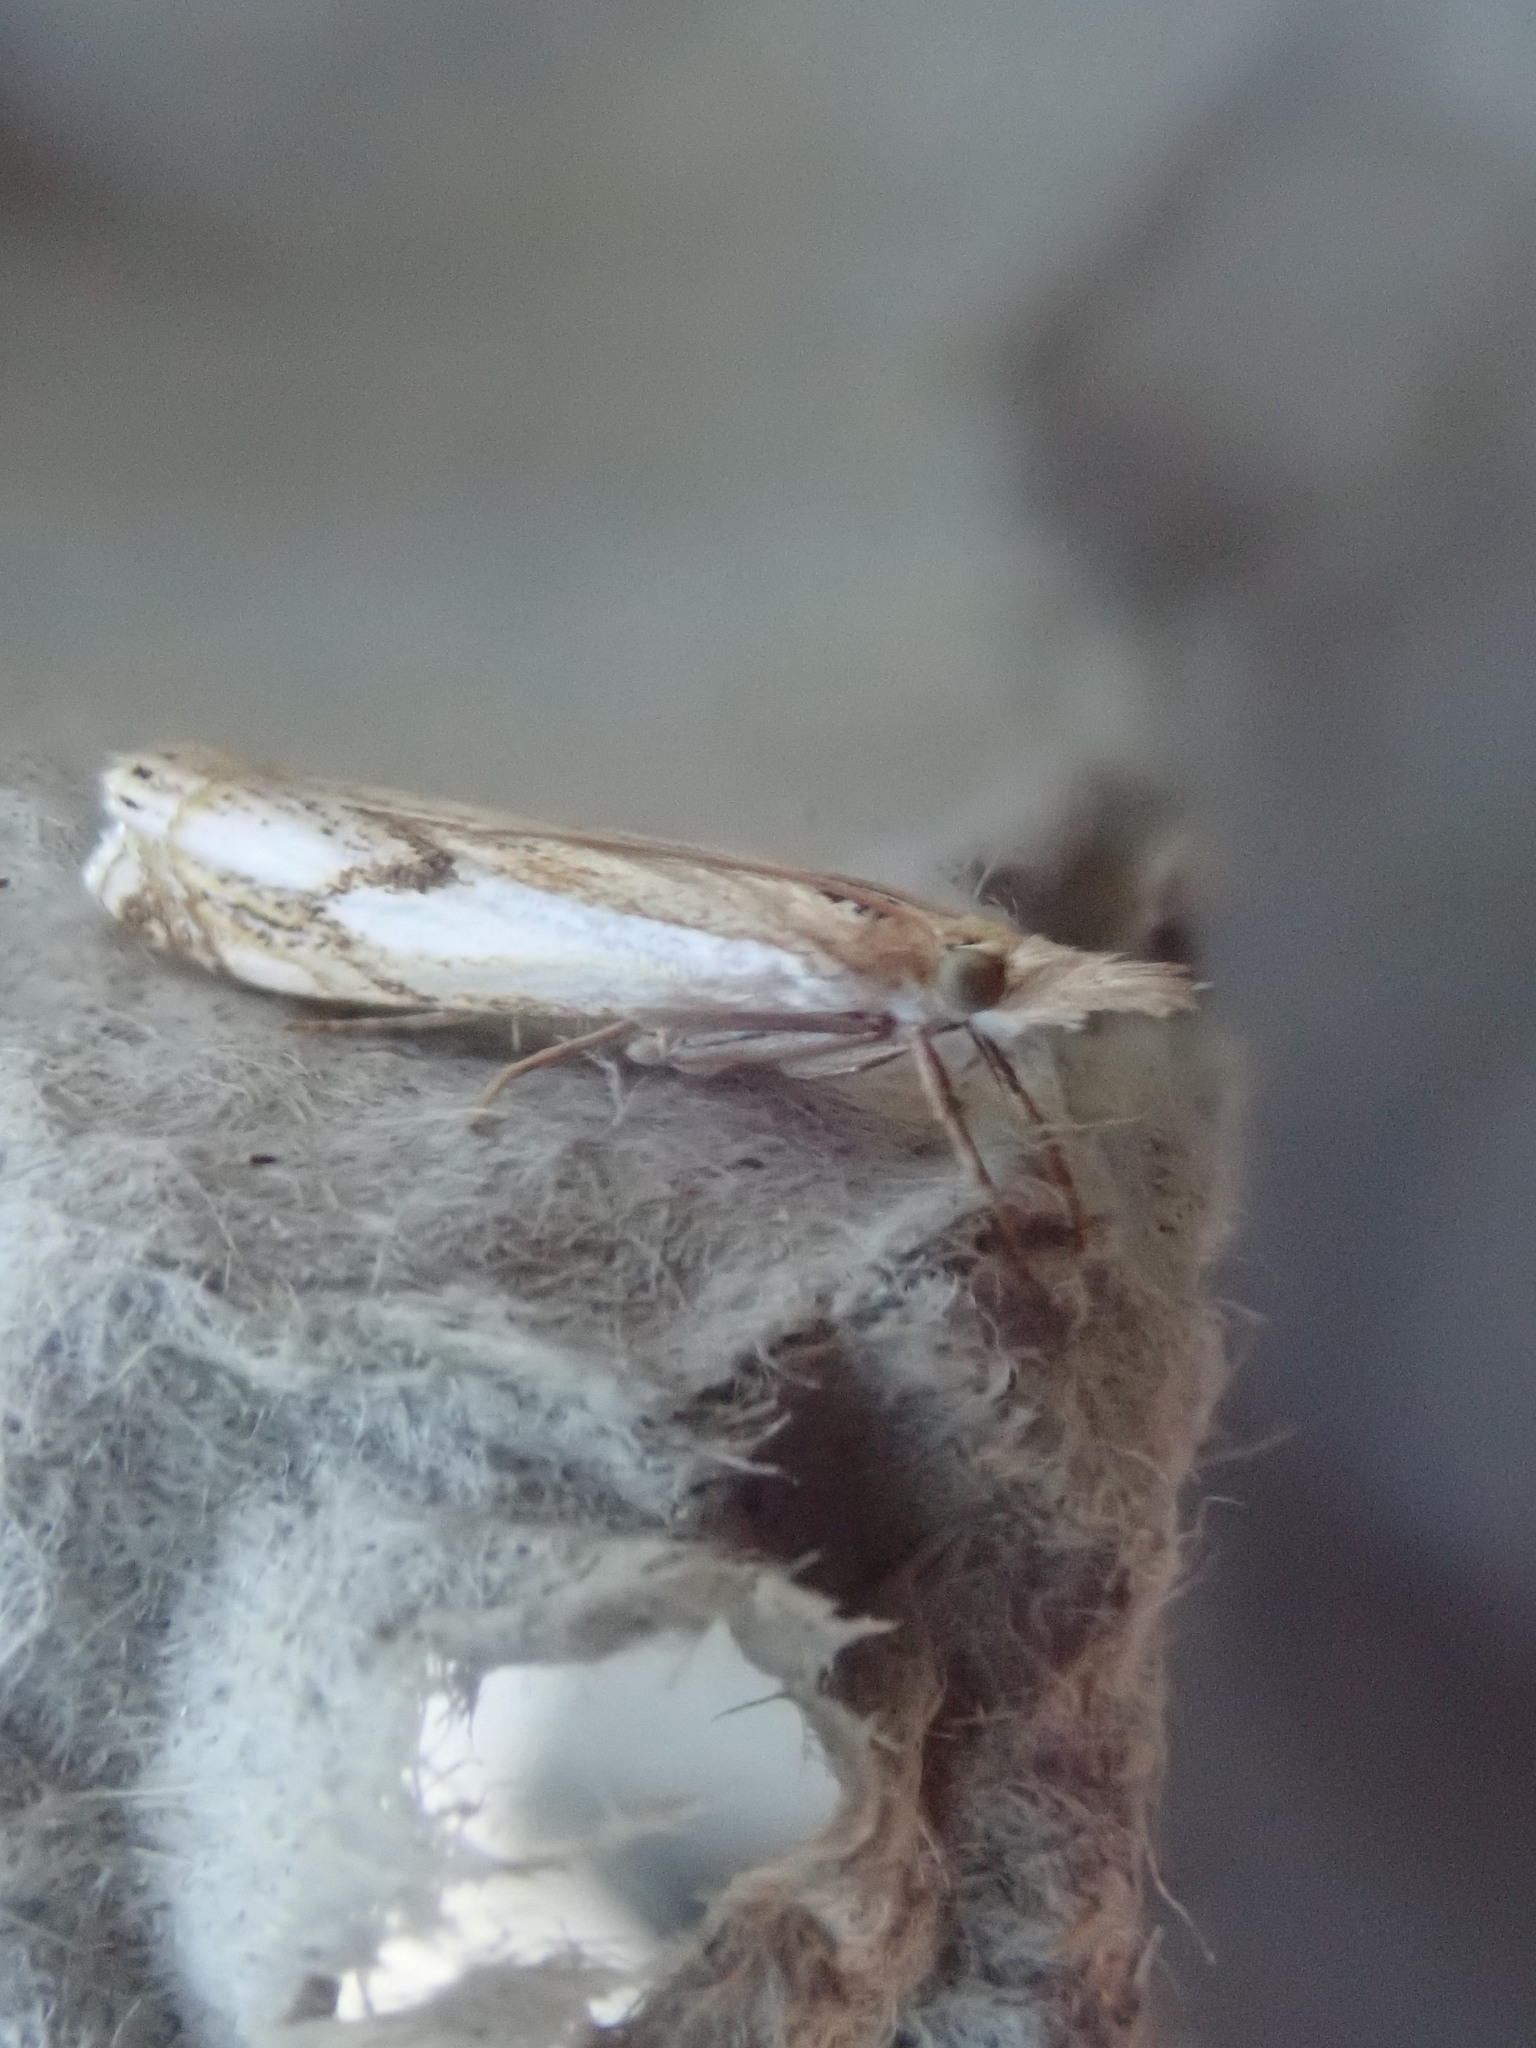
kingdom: Animalia
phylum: Arthropoda
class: Insecta
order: Lepidoptera
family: Crambidae
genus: Crambus
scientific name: Crambus agitatellus
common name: Double-banded grass-veneer
